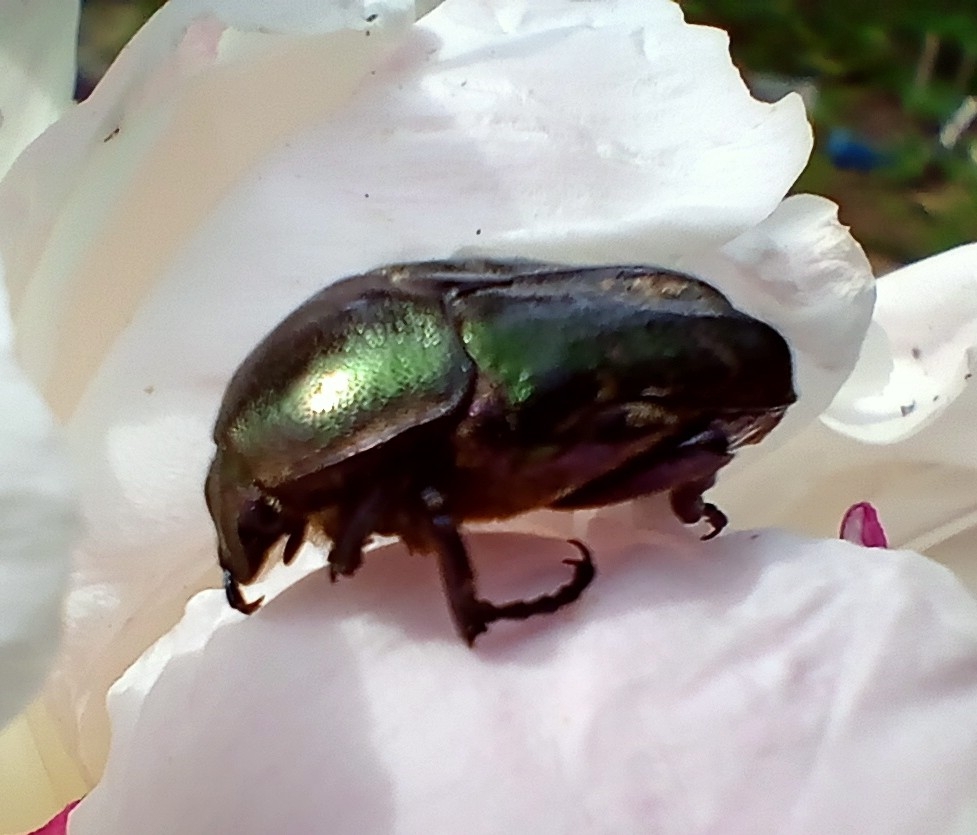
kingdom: Animalia
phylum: Arthropoda
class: Insecta
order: Coleoptera
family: Scarabaeidae
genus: Protaetia
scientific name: Protaetia cuprea
